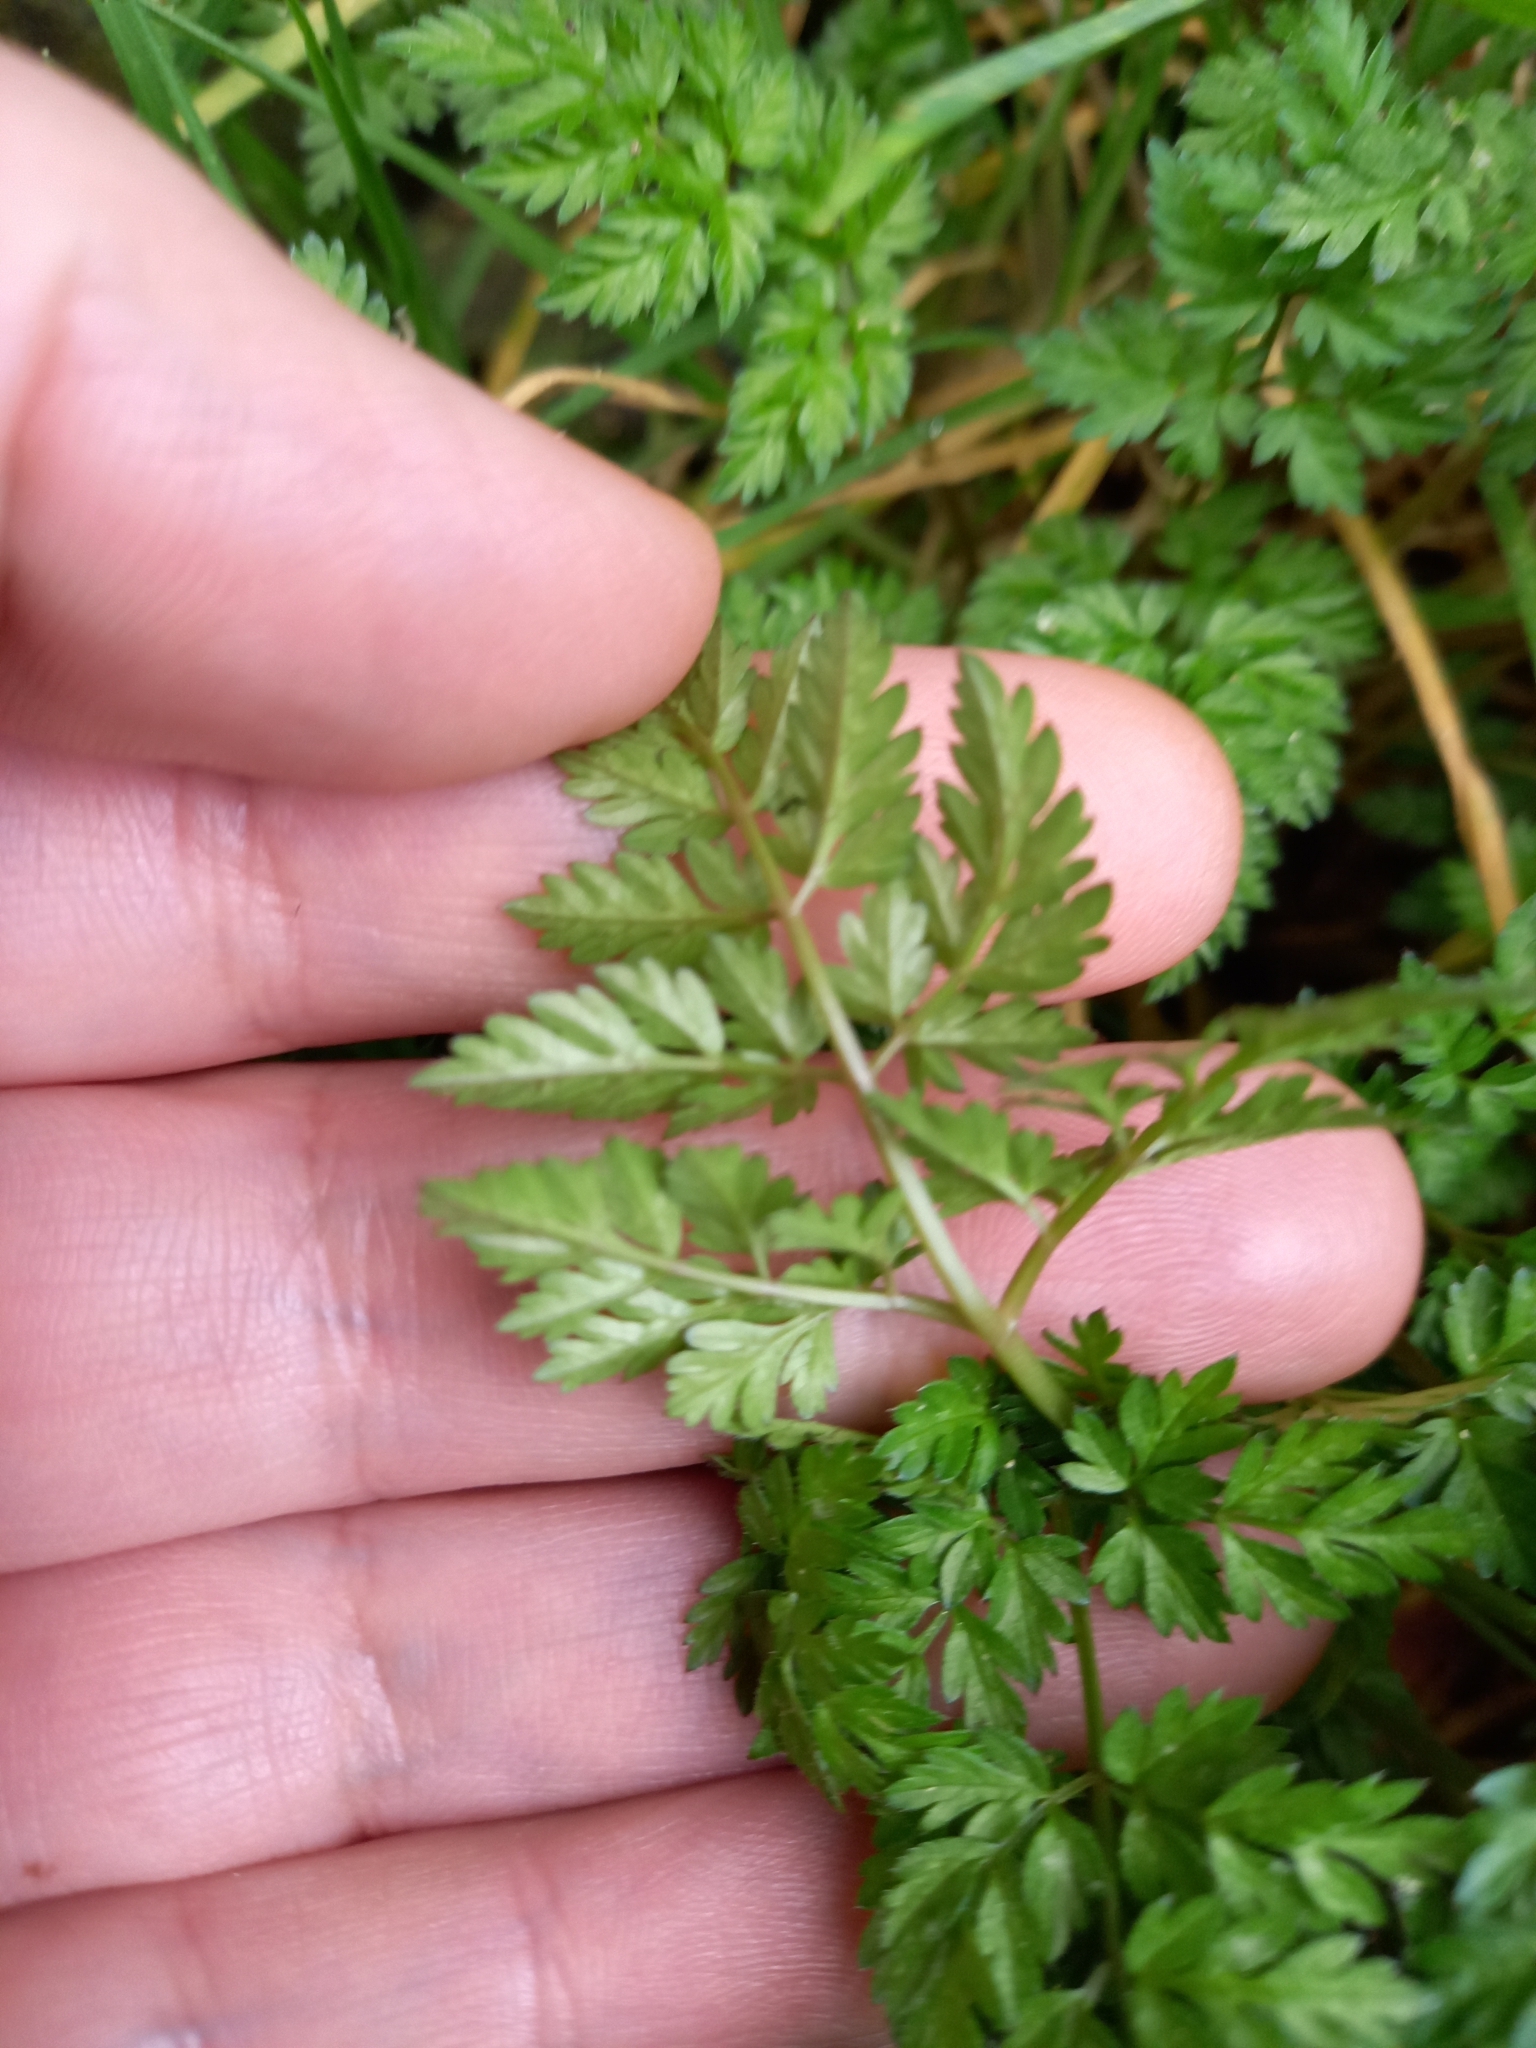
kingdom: Plantae
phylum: Tracheophyta
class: Magnoliopsida
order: Apiales
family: Apiaceae
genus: Anthriscus
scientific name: Anthriscus sylvestris
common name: Cow parsley
